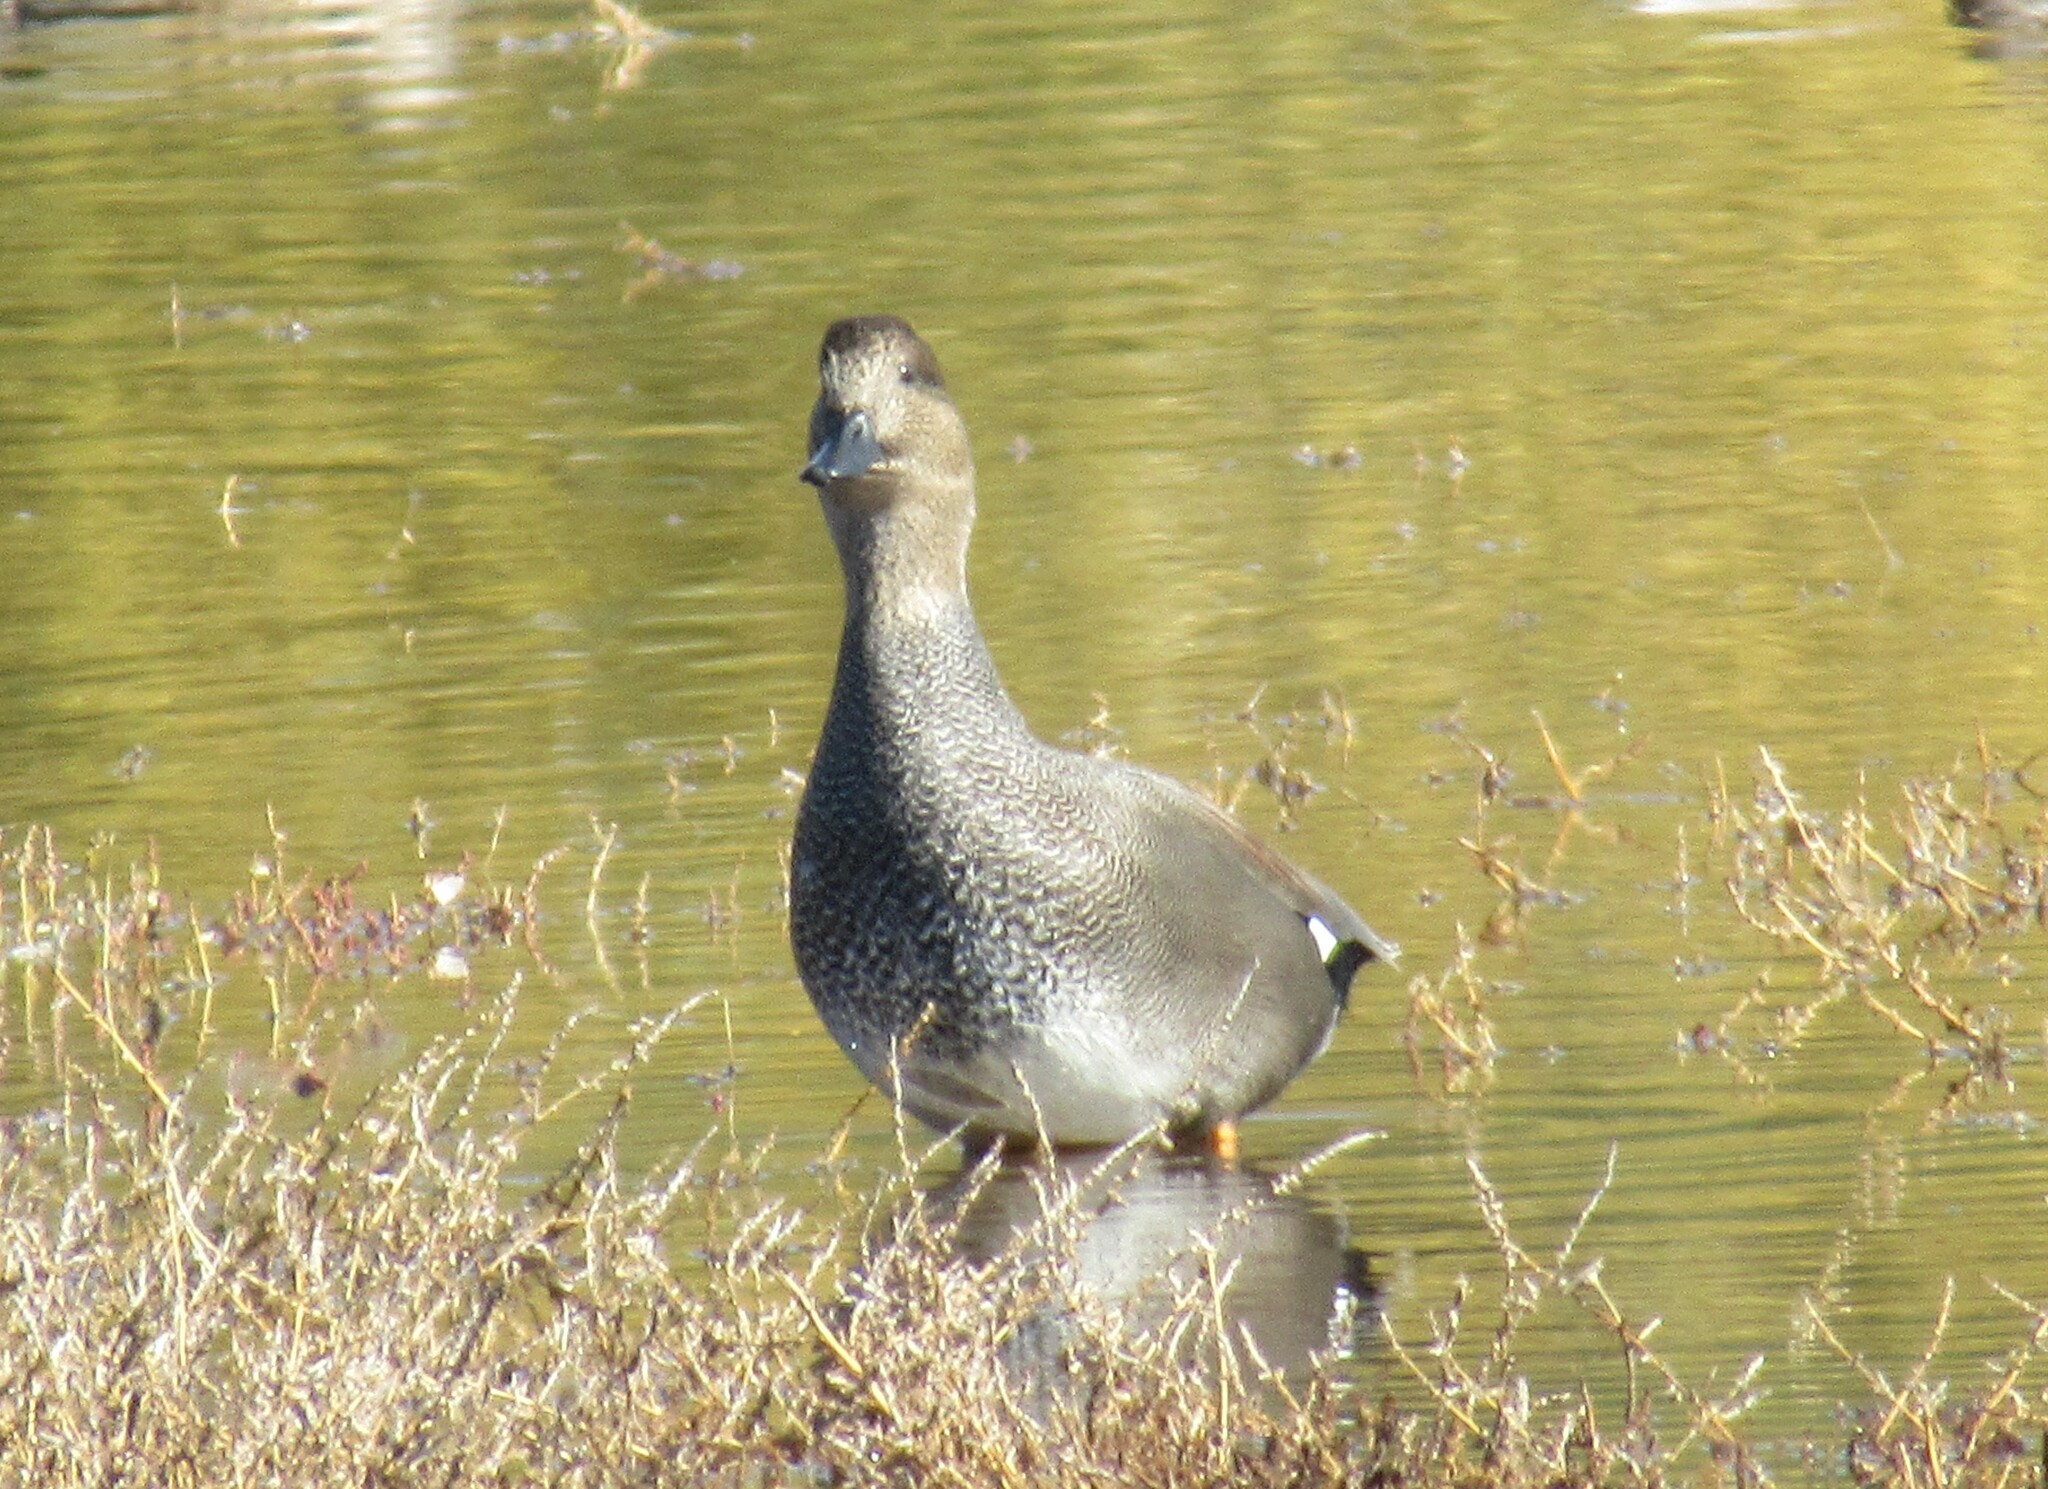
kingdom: Animalia
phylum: Chordata
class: Aves
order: Anseriformes
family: Anatidae
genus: Mareca
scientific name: Mareca strepera
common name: Gadwall
